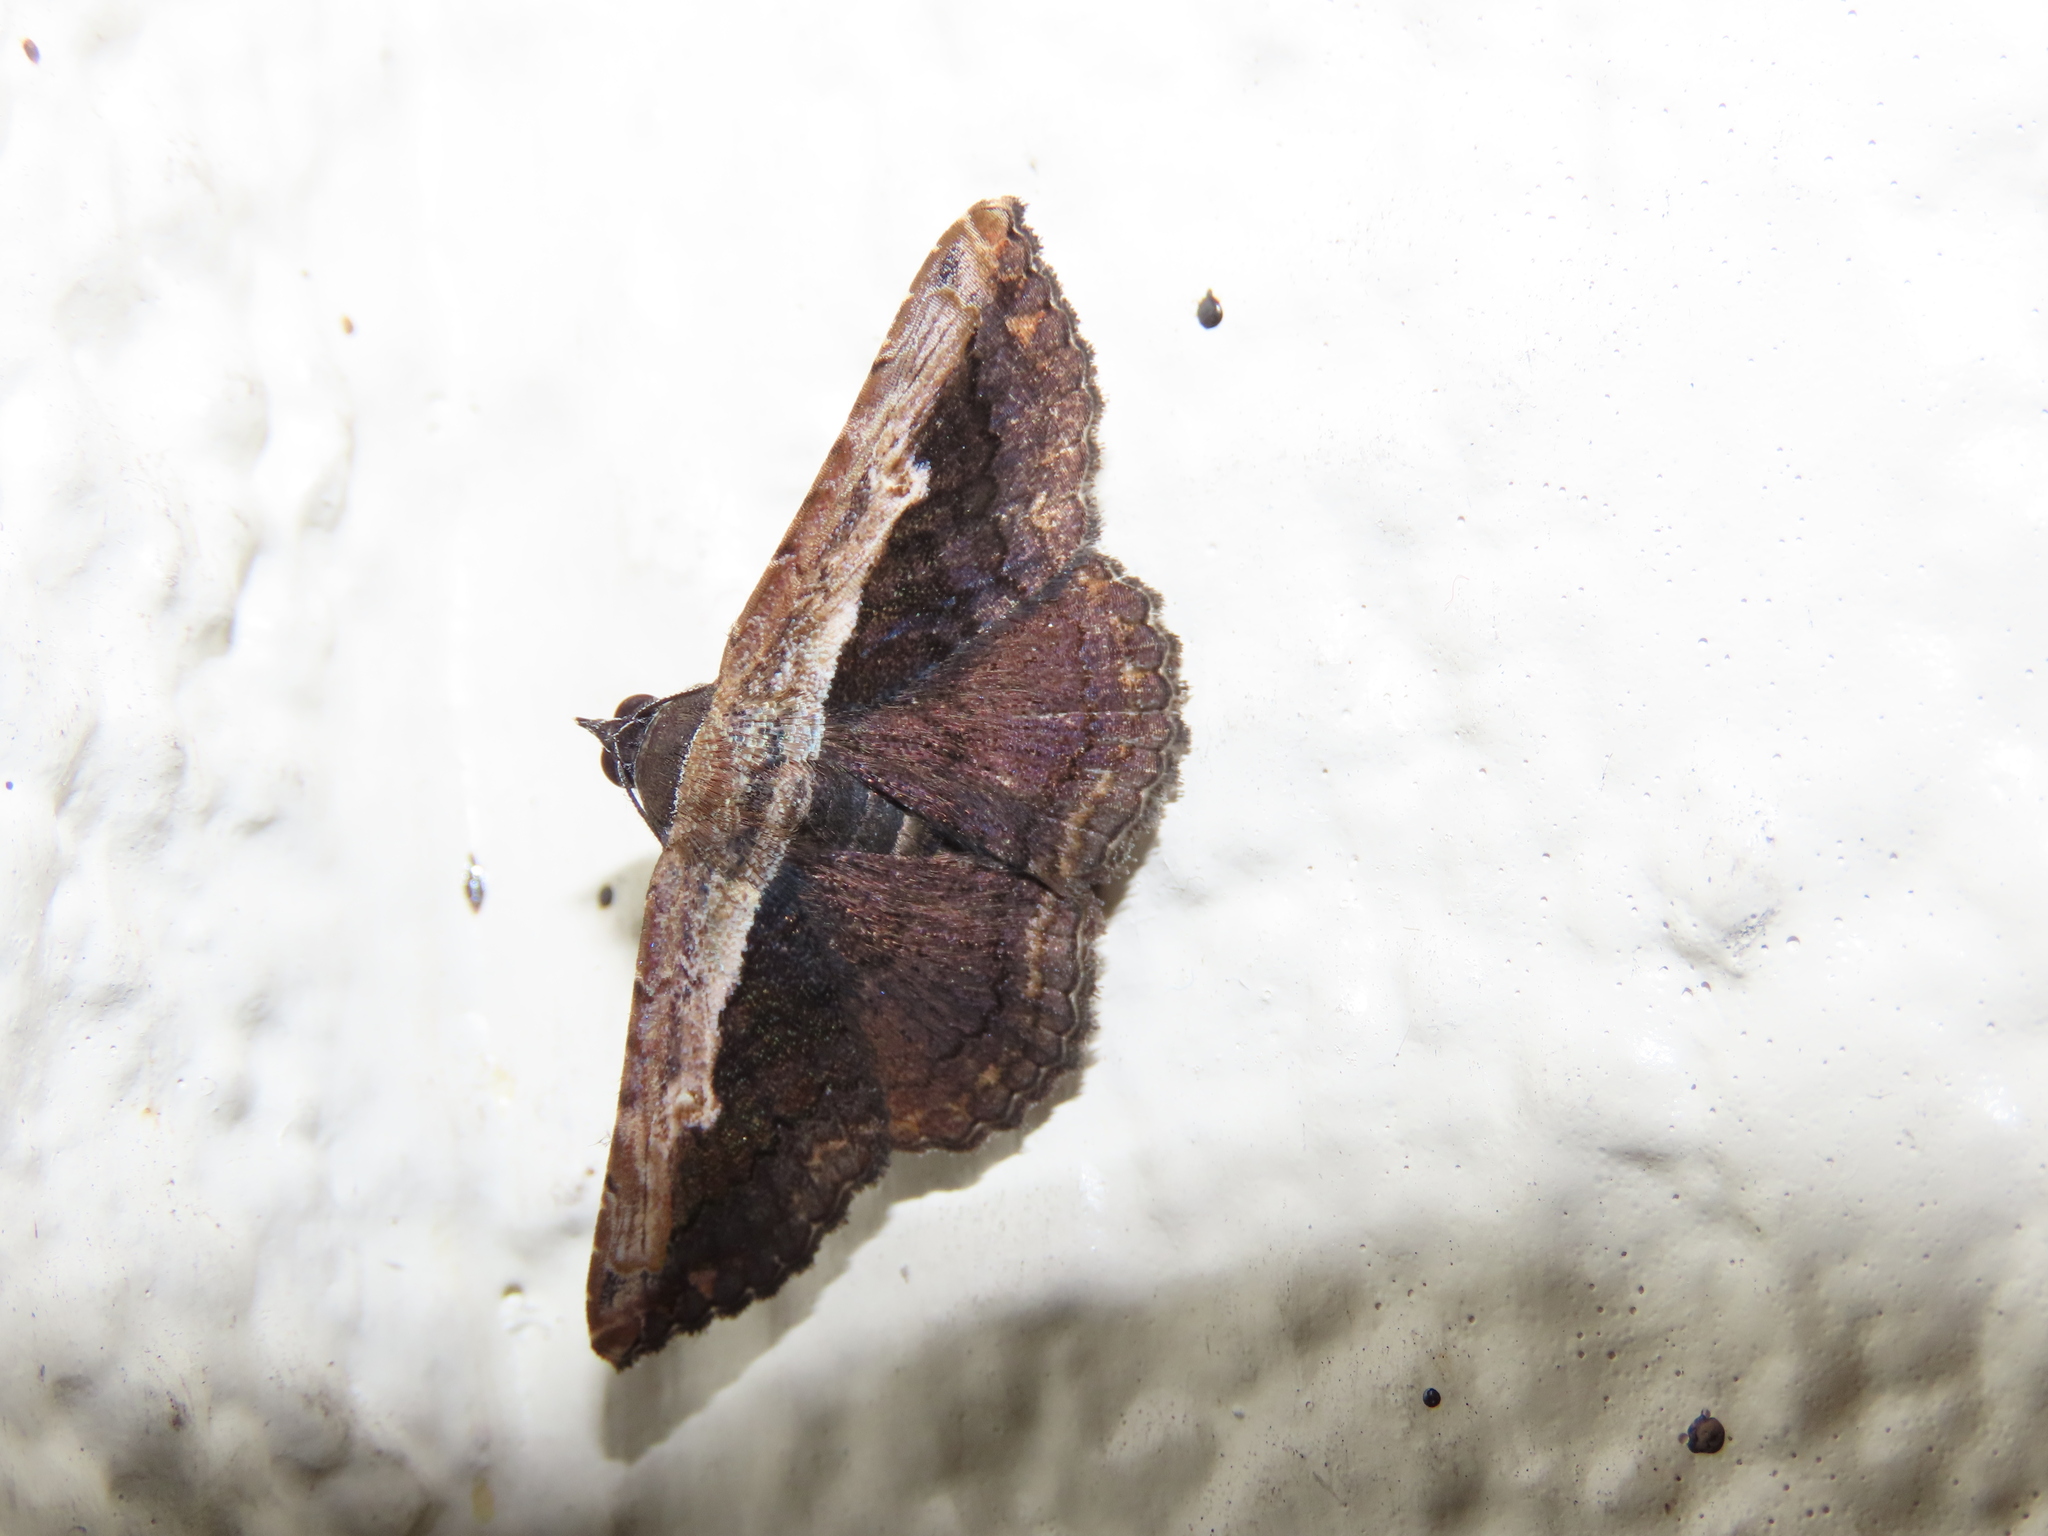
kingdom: Animalia
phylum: Arthropoda
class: Insecta
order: Lepidoptera
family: Erebidae
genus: Selenisa
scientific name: Selenisa sueroides
